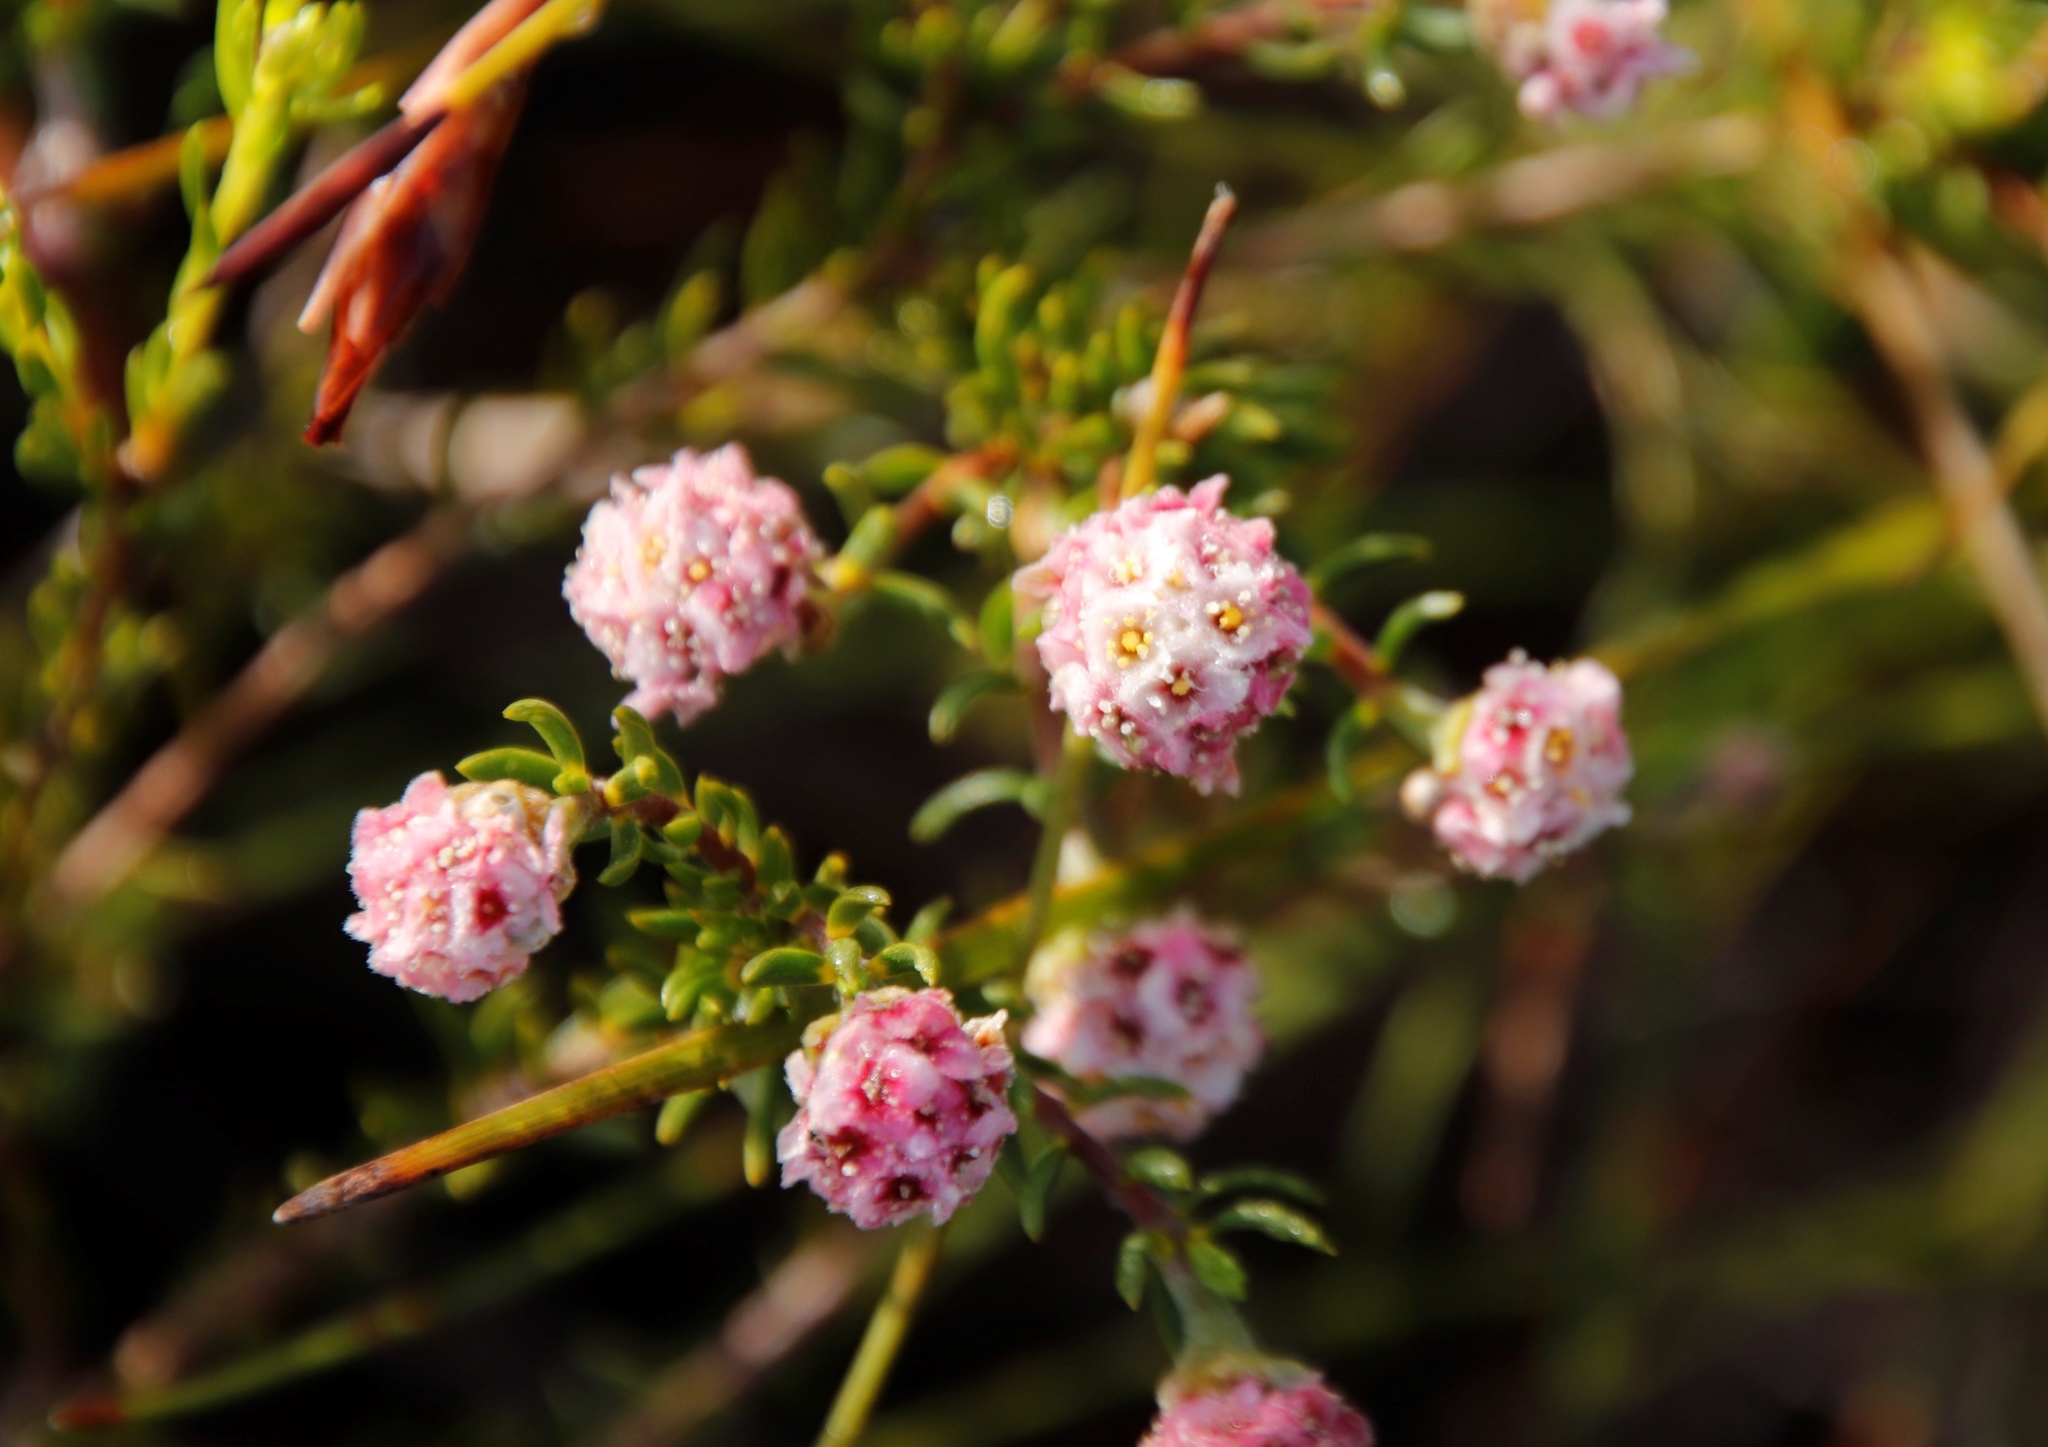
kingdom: Plantae
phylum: Tracheophyta
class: Magnoliopsida
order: Malvales
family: Thymelaeaceae
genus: Lachnaea
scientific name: Lachnaea densiflora
